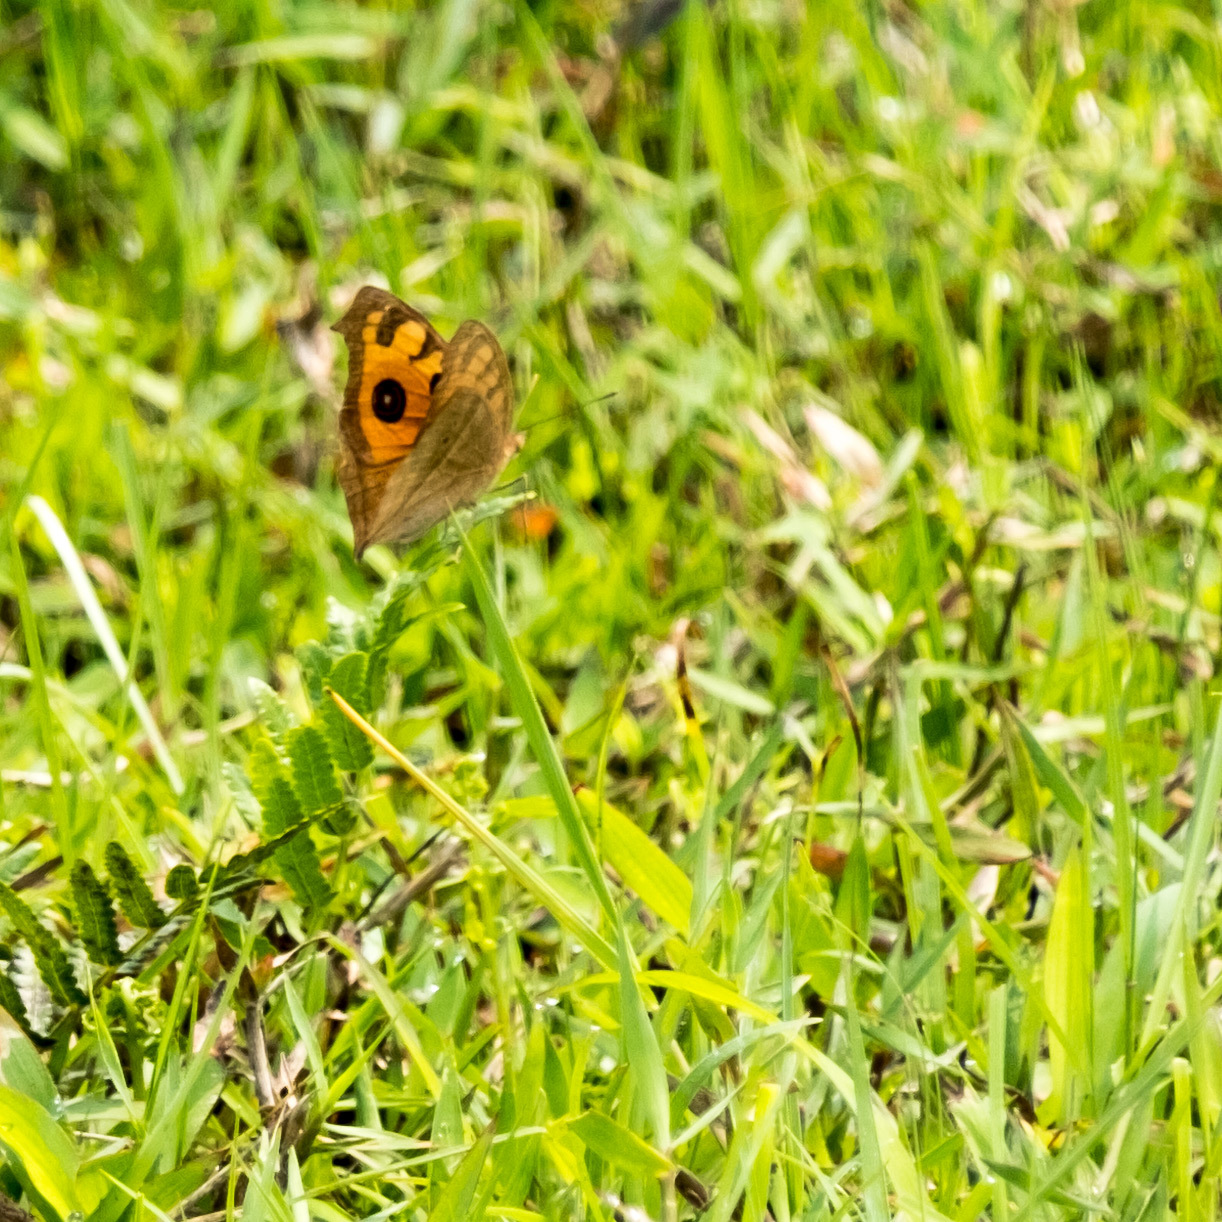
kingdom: Animalia
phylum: Arthropoda
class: Insecta
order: Lepidoptera
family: Nymphalidae
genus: Junonia
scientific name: Junonia almana
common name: Peacock pansy
